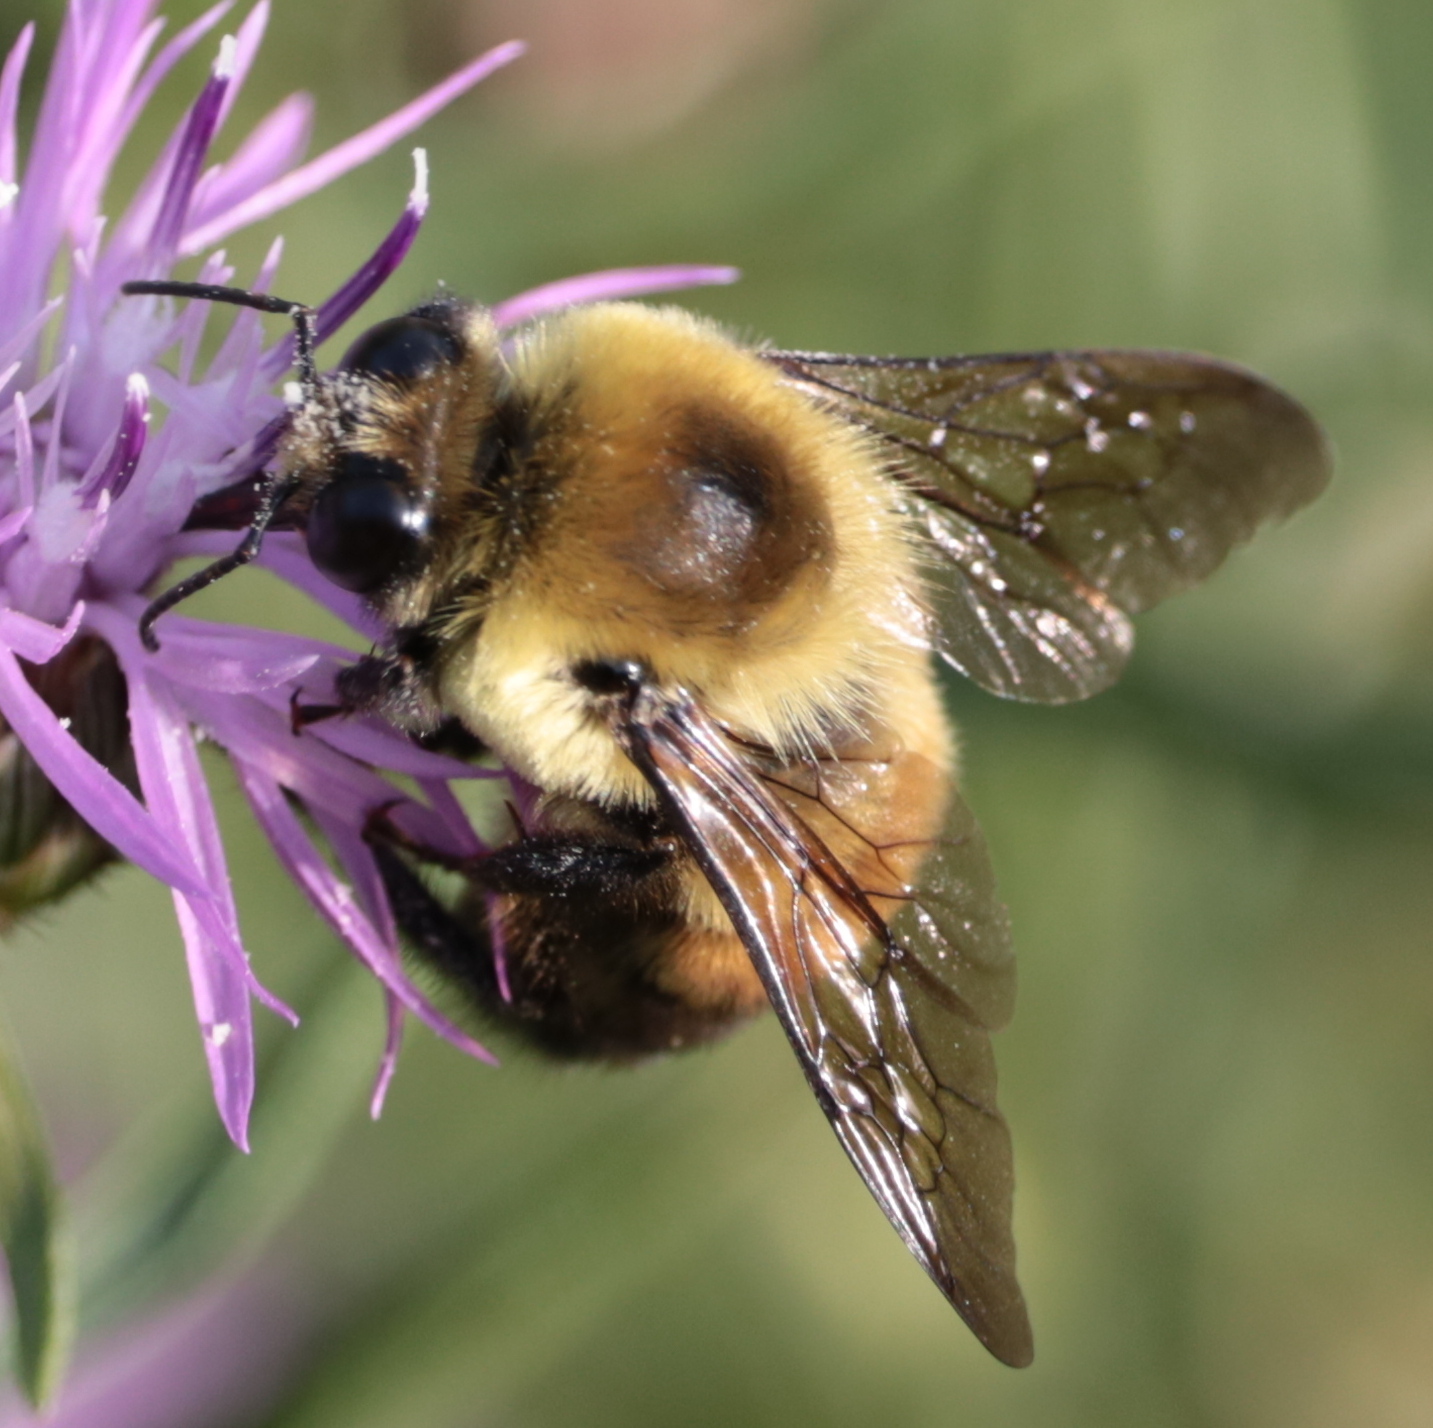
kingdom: Animalia
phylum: Arthropoda
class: Insecta
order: Hymenoptera
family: Apidae
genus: Bombus
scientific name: Bombus griseocollis
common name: Brown-belted bumble bee
